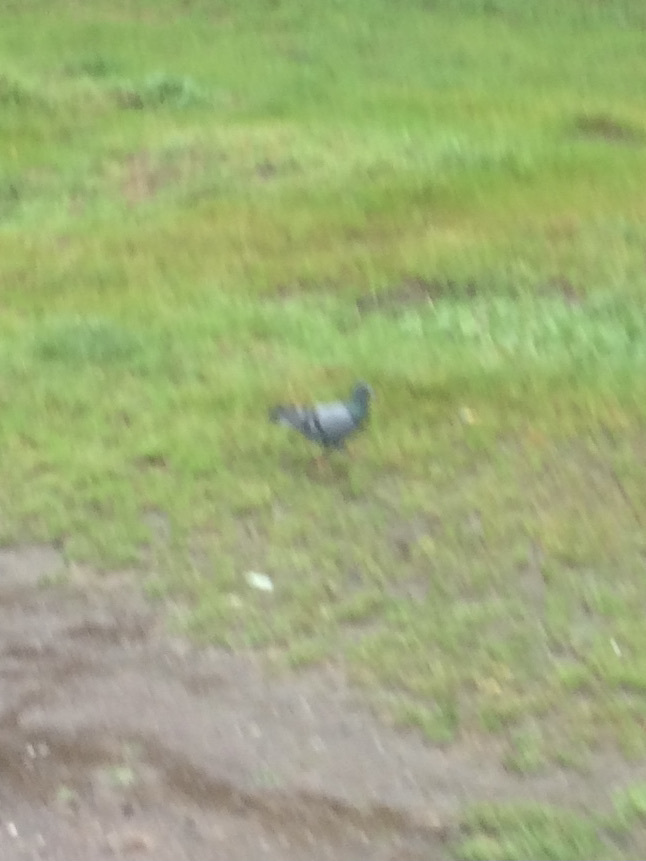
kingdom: Animalia
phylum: Chordata
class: Aves
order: Columbiformes
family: Columbidae
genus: Columba
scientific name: Columba livia
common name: Rock pigeon
